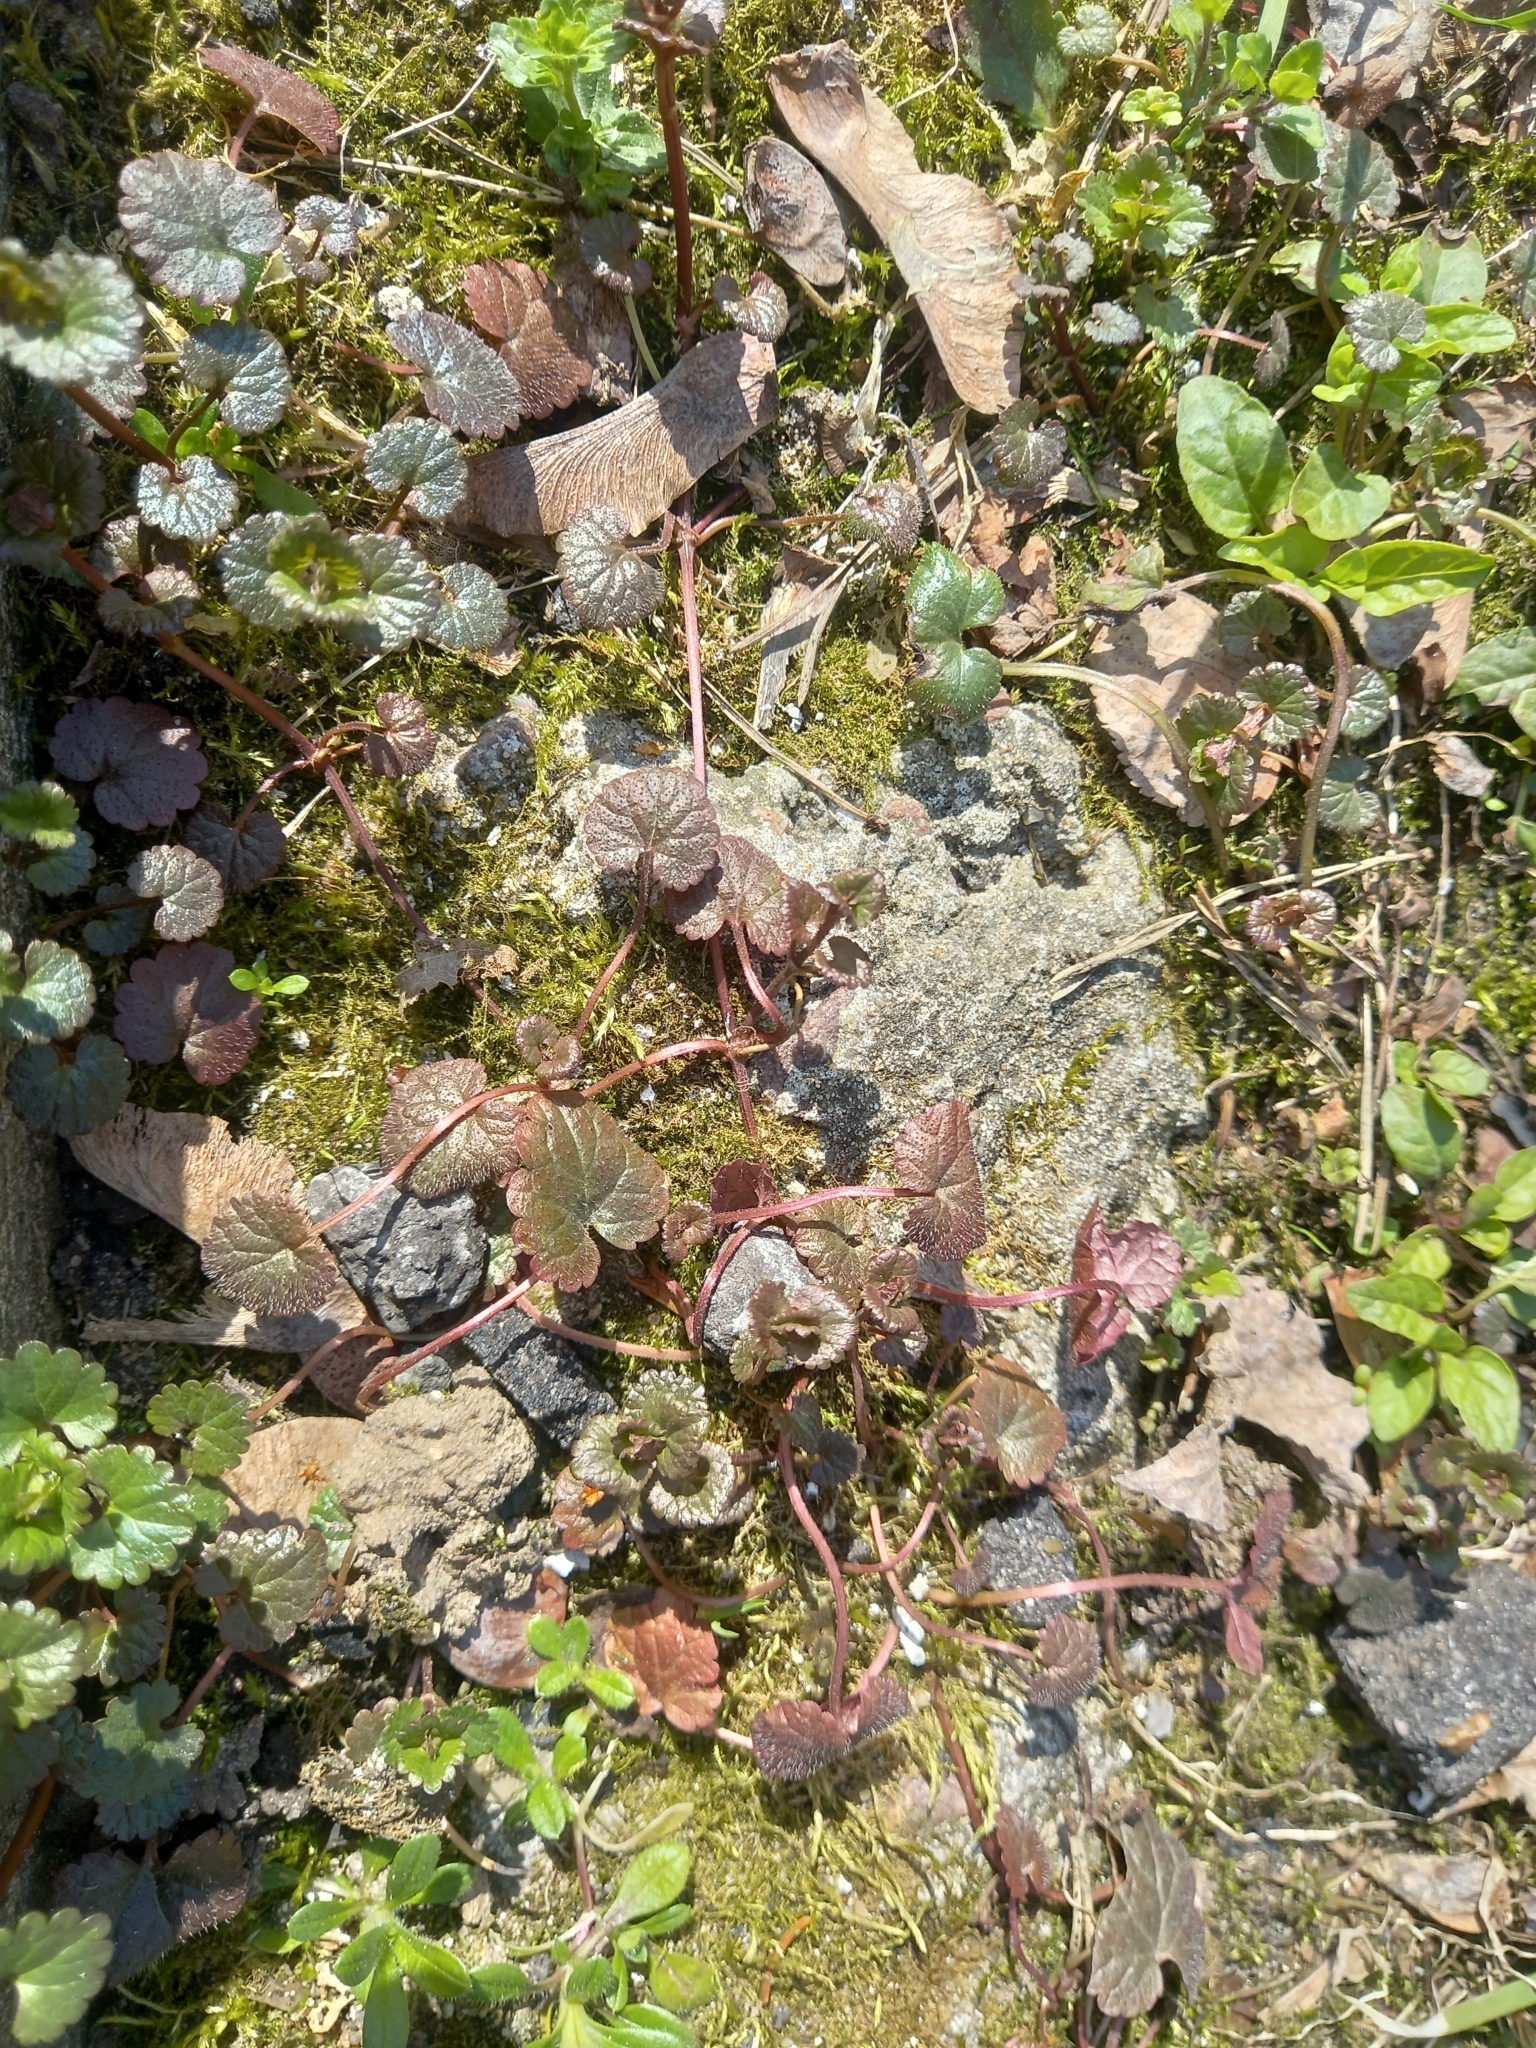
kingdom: Plantae
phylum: Tracheophyta
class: Magnoliopsida
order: Lamiales
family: Lamiaceae
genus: Glechoma
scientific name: Glechoma hederacea
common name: Ground ivy
